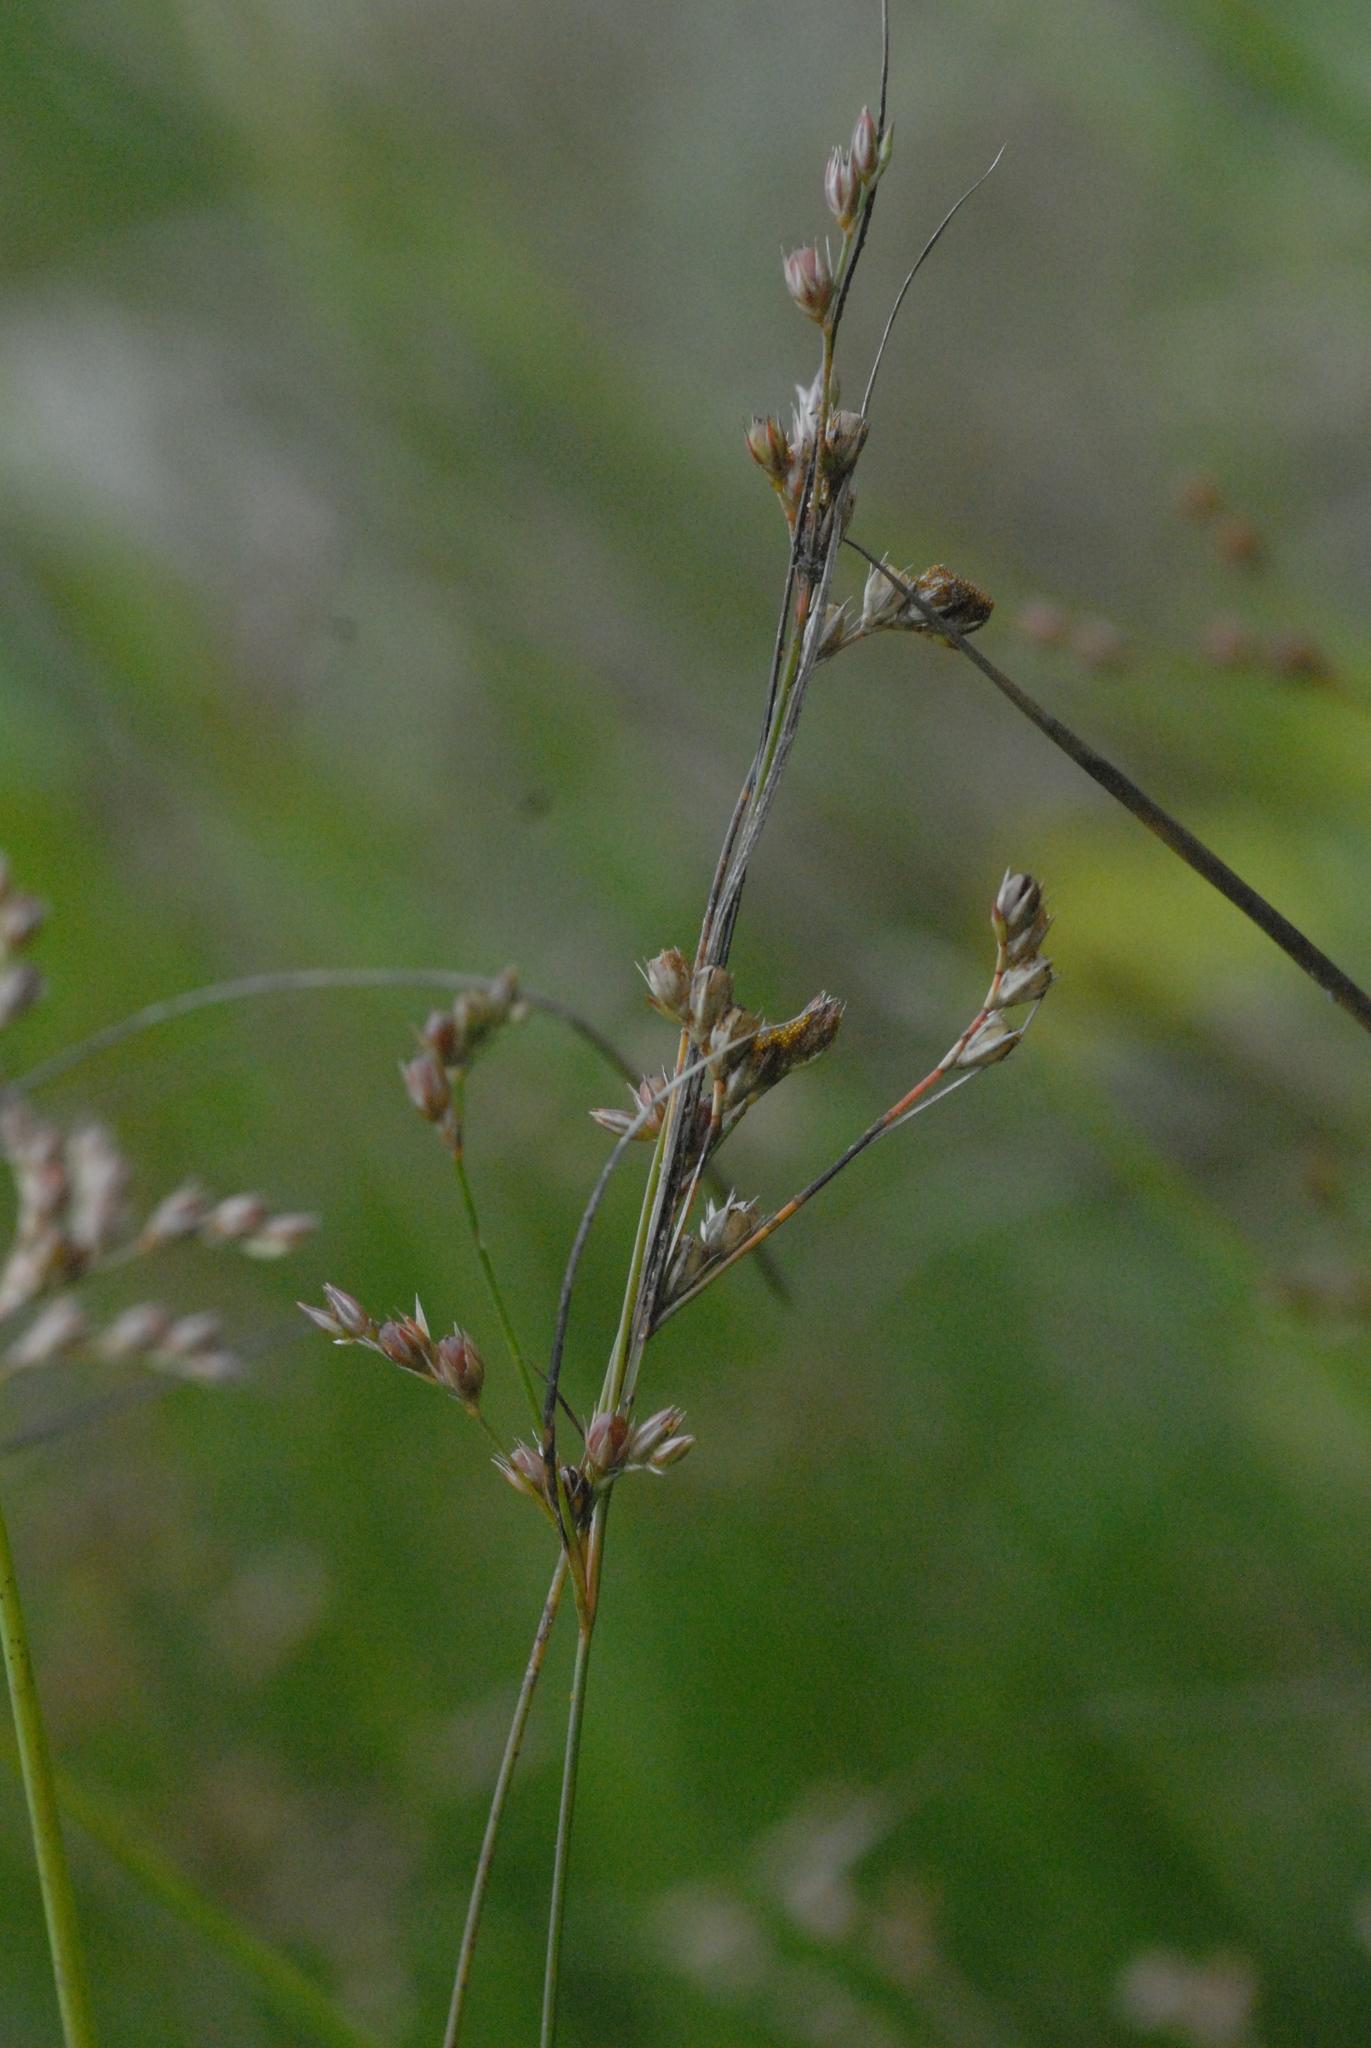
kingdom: Plantae
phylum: Tracheophyta
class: Liliopsida
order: Poales
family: Juncaceae
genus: Juncus
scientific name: Juncus tenuis
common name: Slender rush
